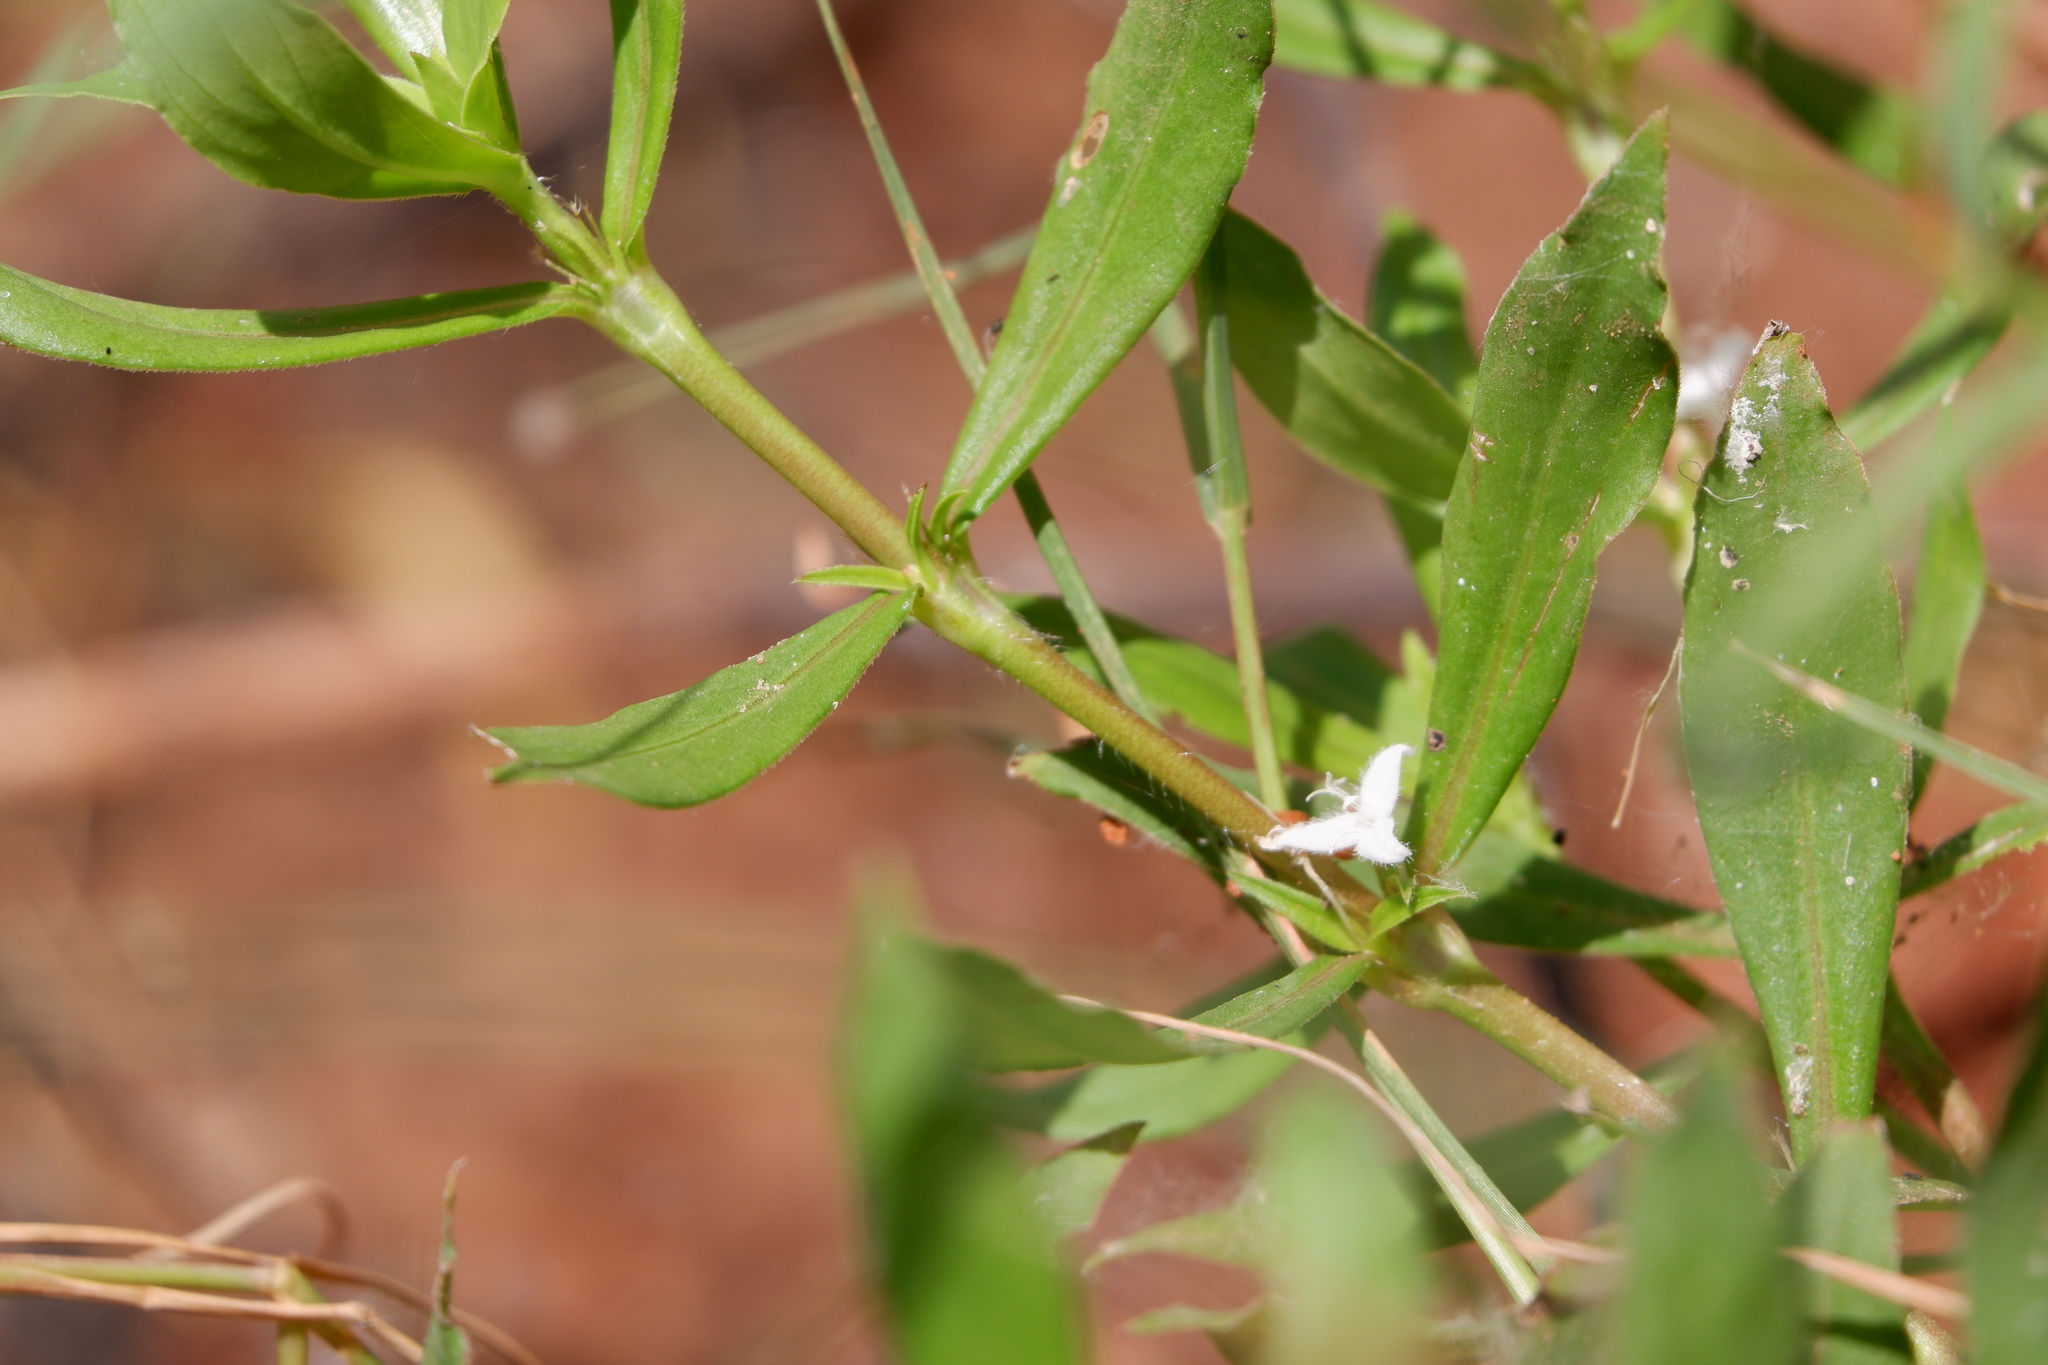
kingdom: Plantae
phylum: Tracheophyta
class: Magnoliopsida
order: Gentianales
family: Rubiaceae
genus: Diodia
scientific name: Diodia virginiana
